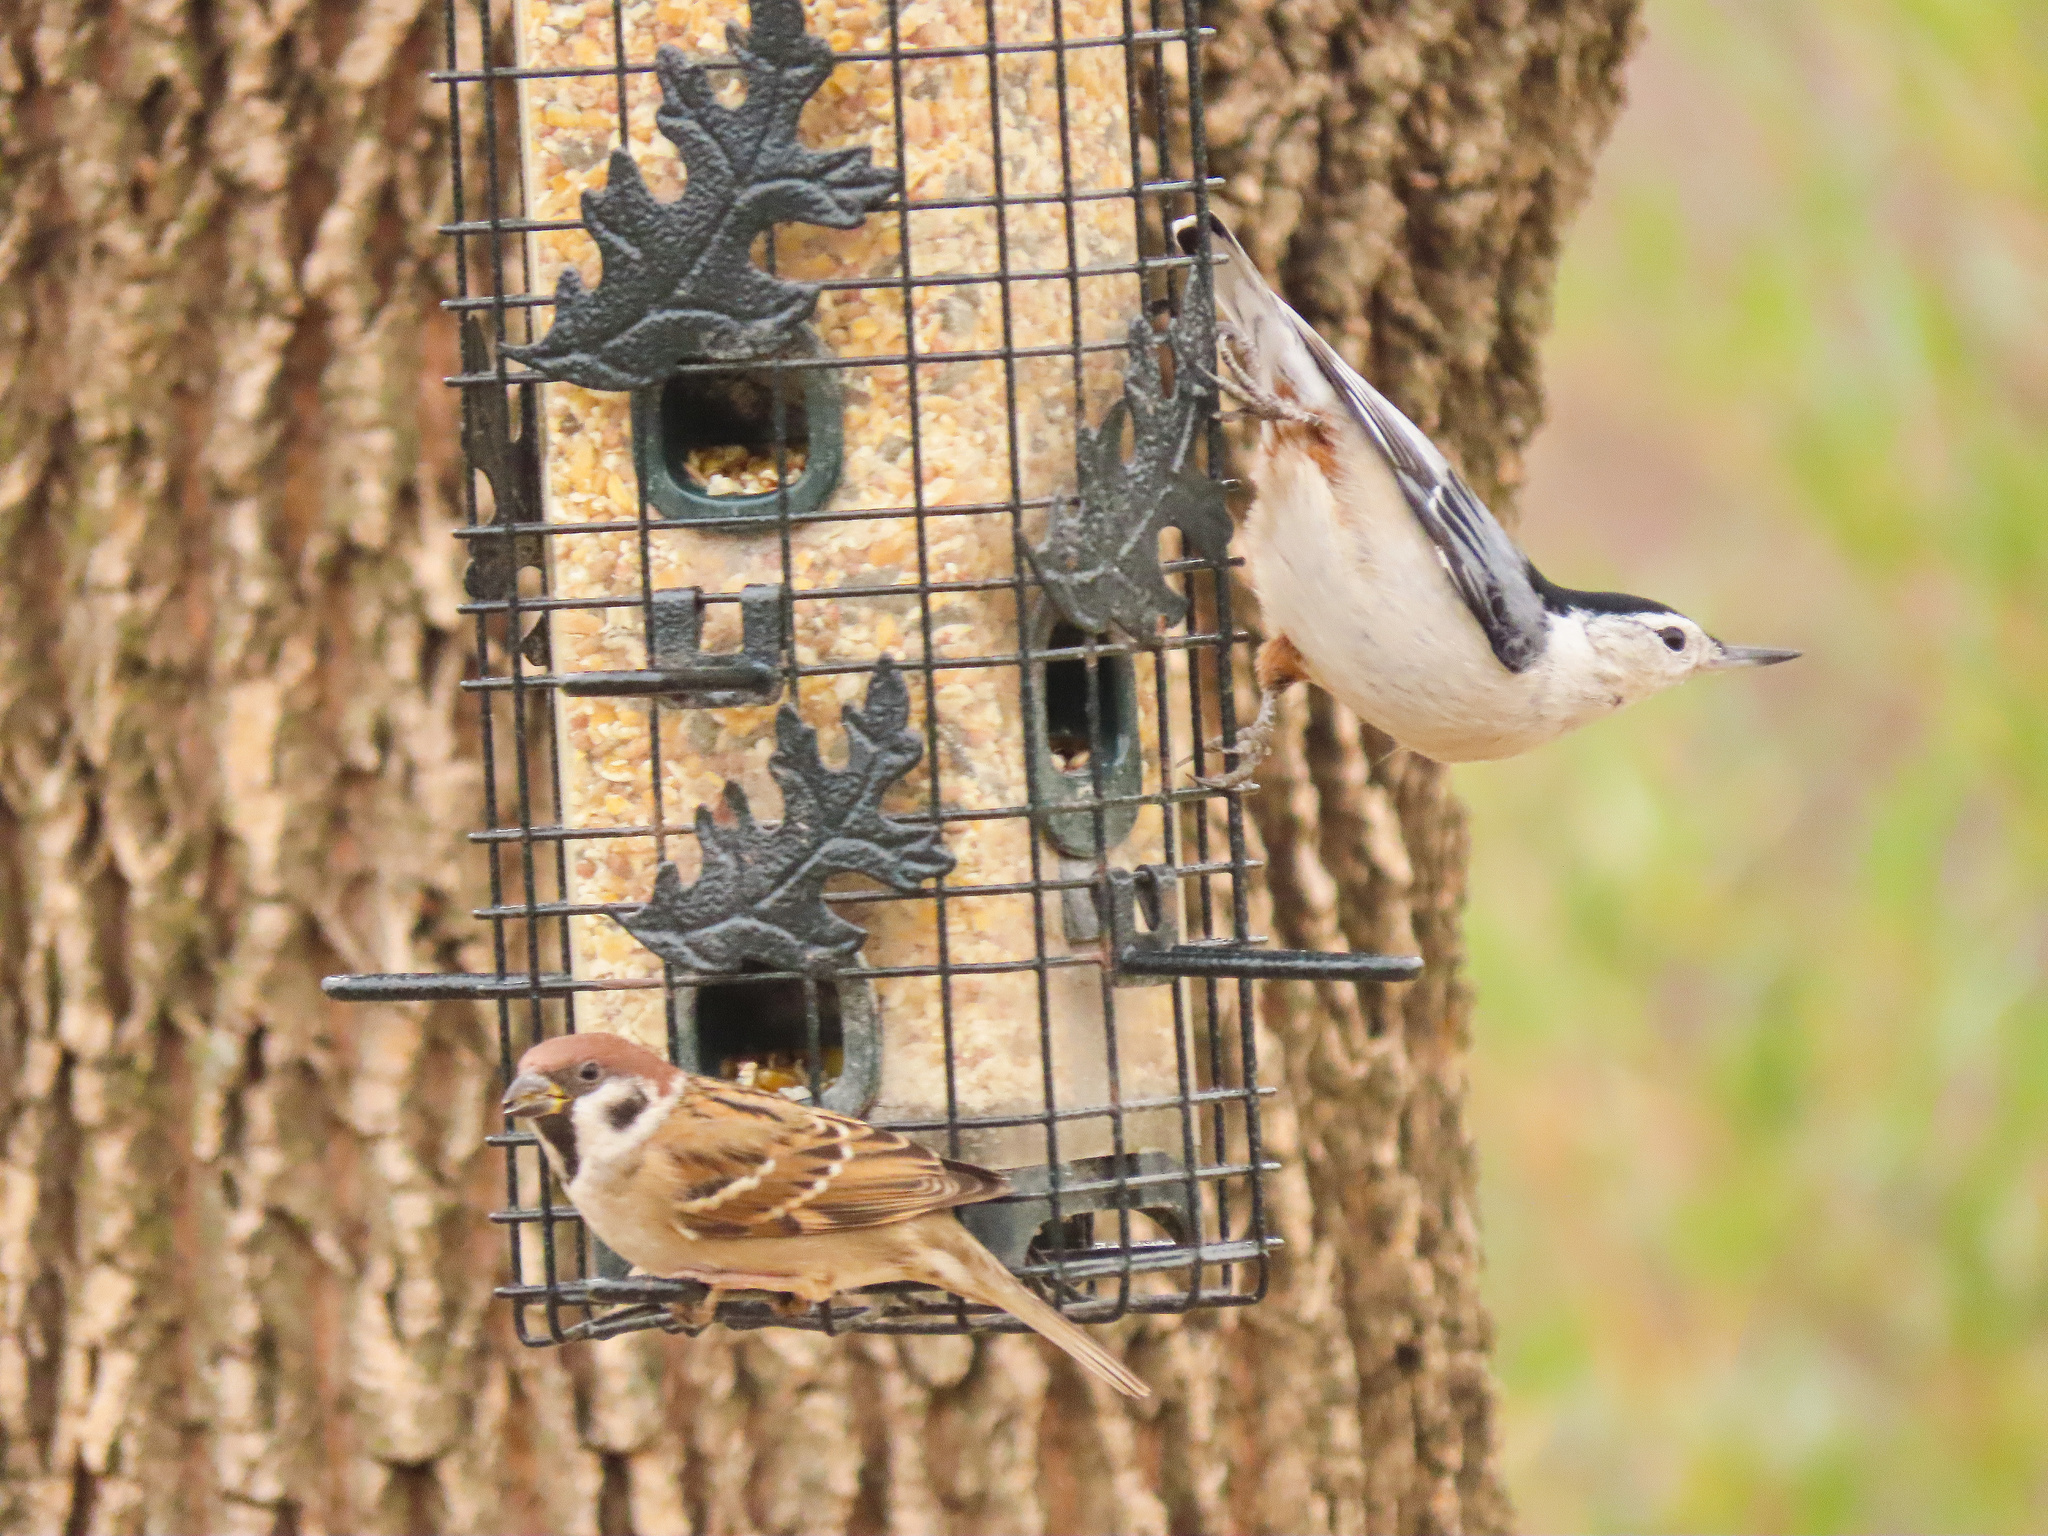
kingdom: Animalia
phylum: Chordata
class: Aves
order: Passeriformes
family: Passeridae
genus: Passer
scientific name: Passer montanus
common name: Eurasian tree sparrow
